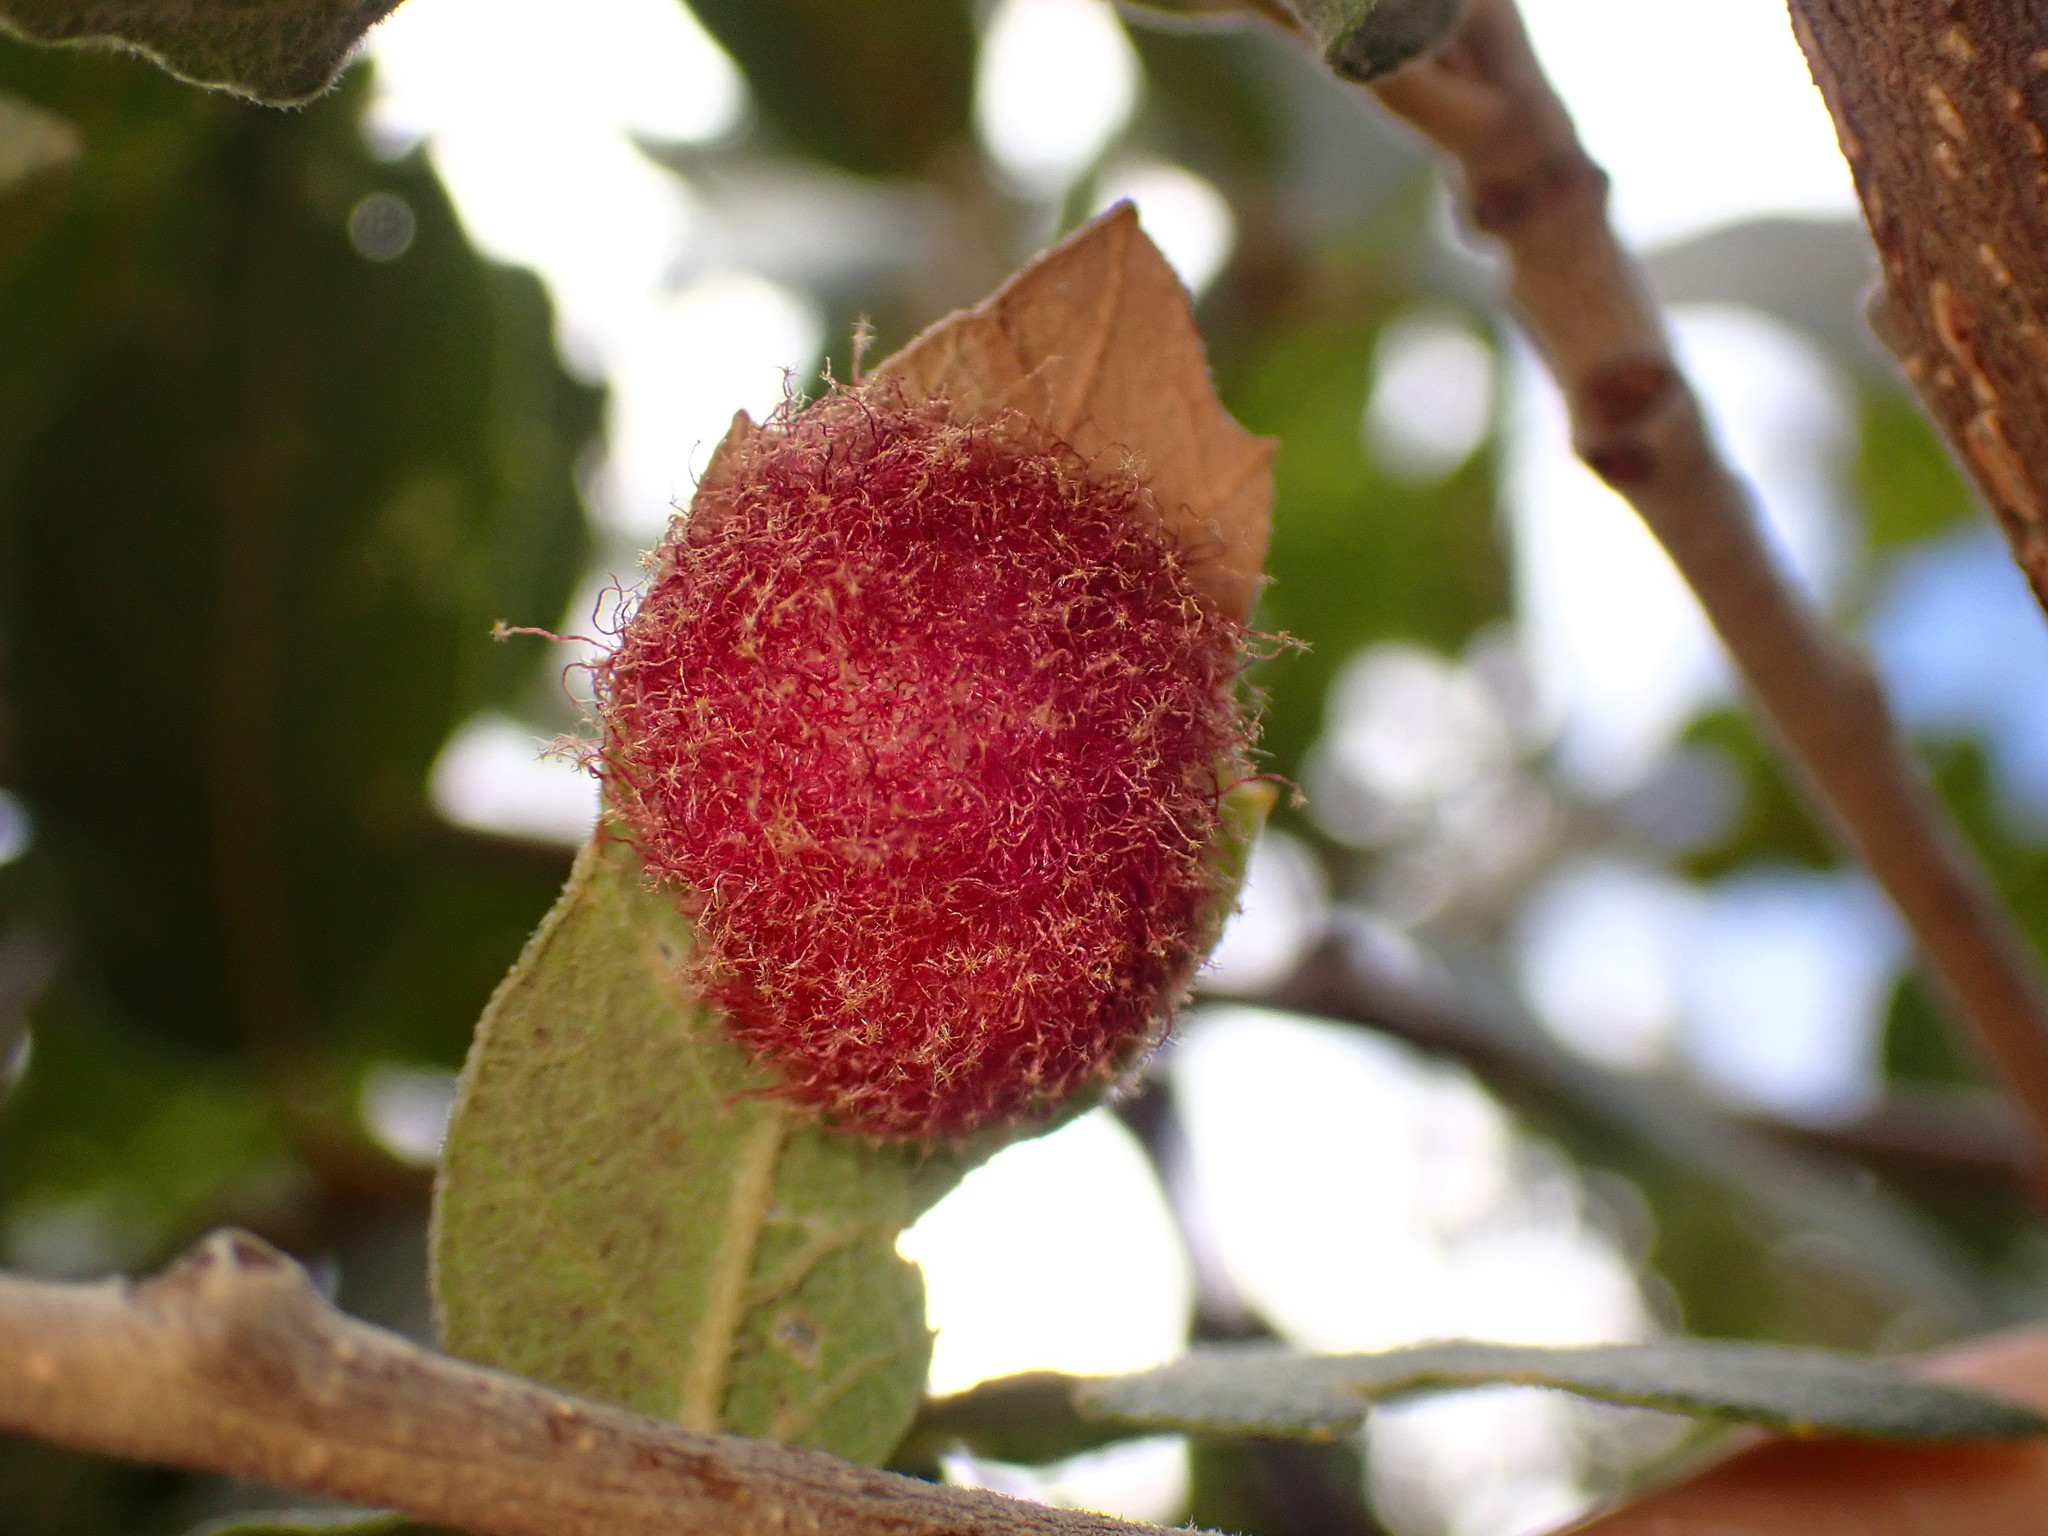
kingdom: Animalia
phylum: Arthropoda
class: Insecta
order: Hymenoptera
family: Cynipidae
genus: Cynips
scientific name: Cynips
